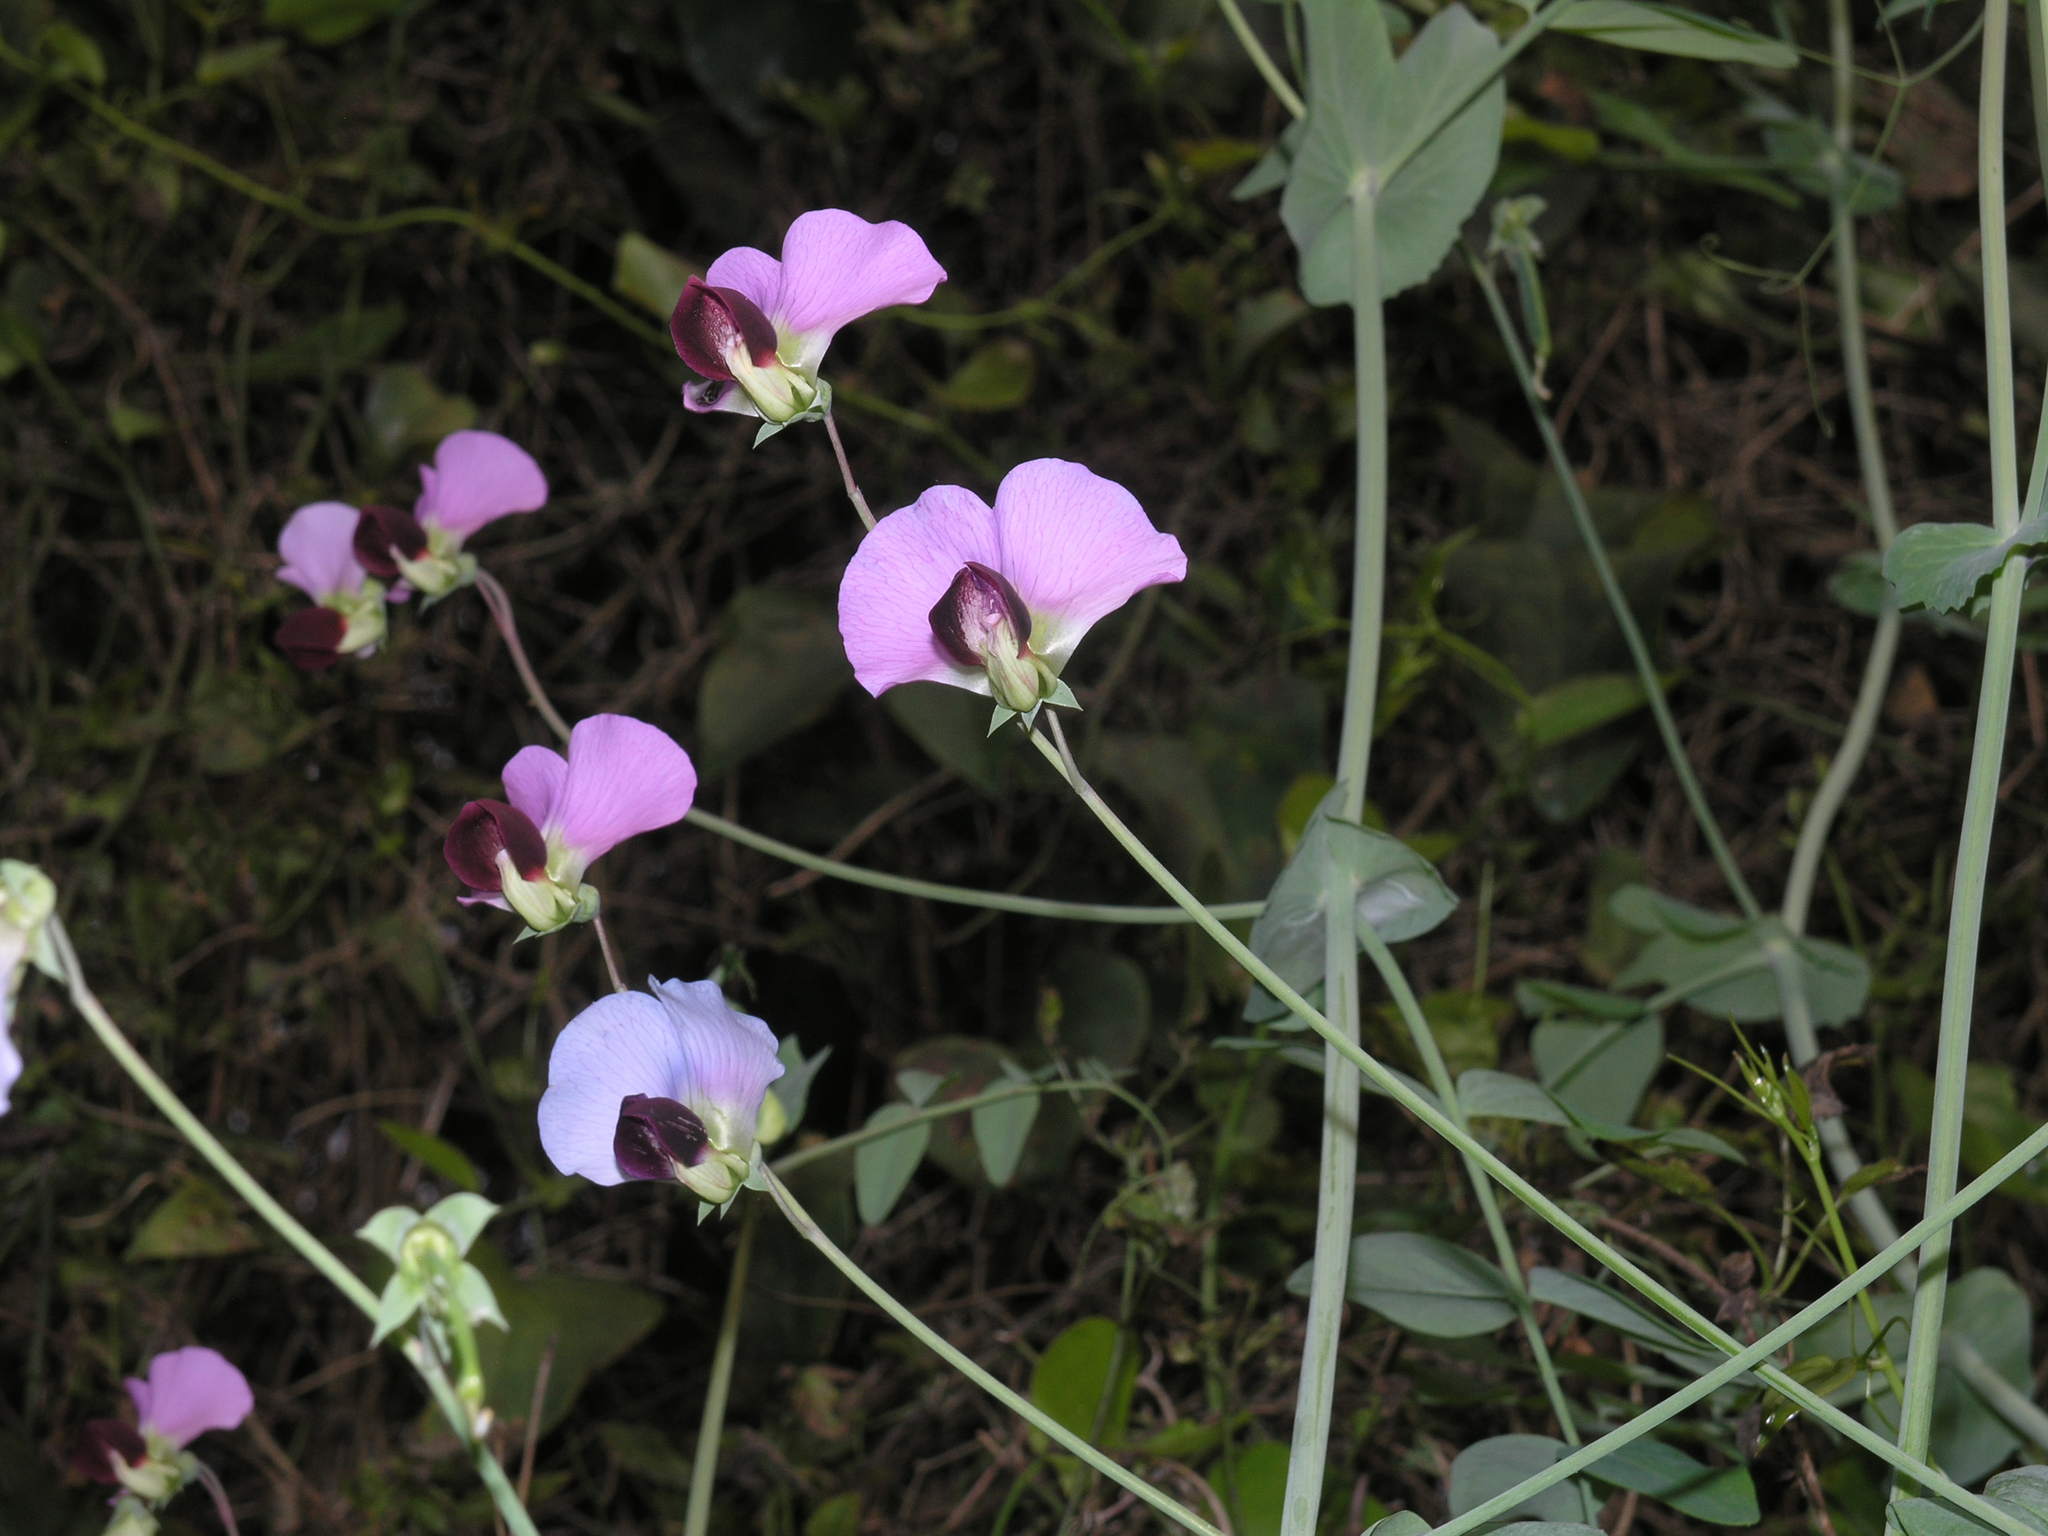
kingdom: Plantae
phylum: Tracheophyta
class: Magnoliopsida
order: Fabales
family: Fabaceae
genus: Lathyrus
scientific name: Lathyrus oleraceus
